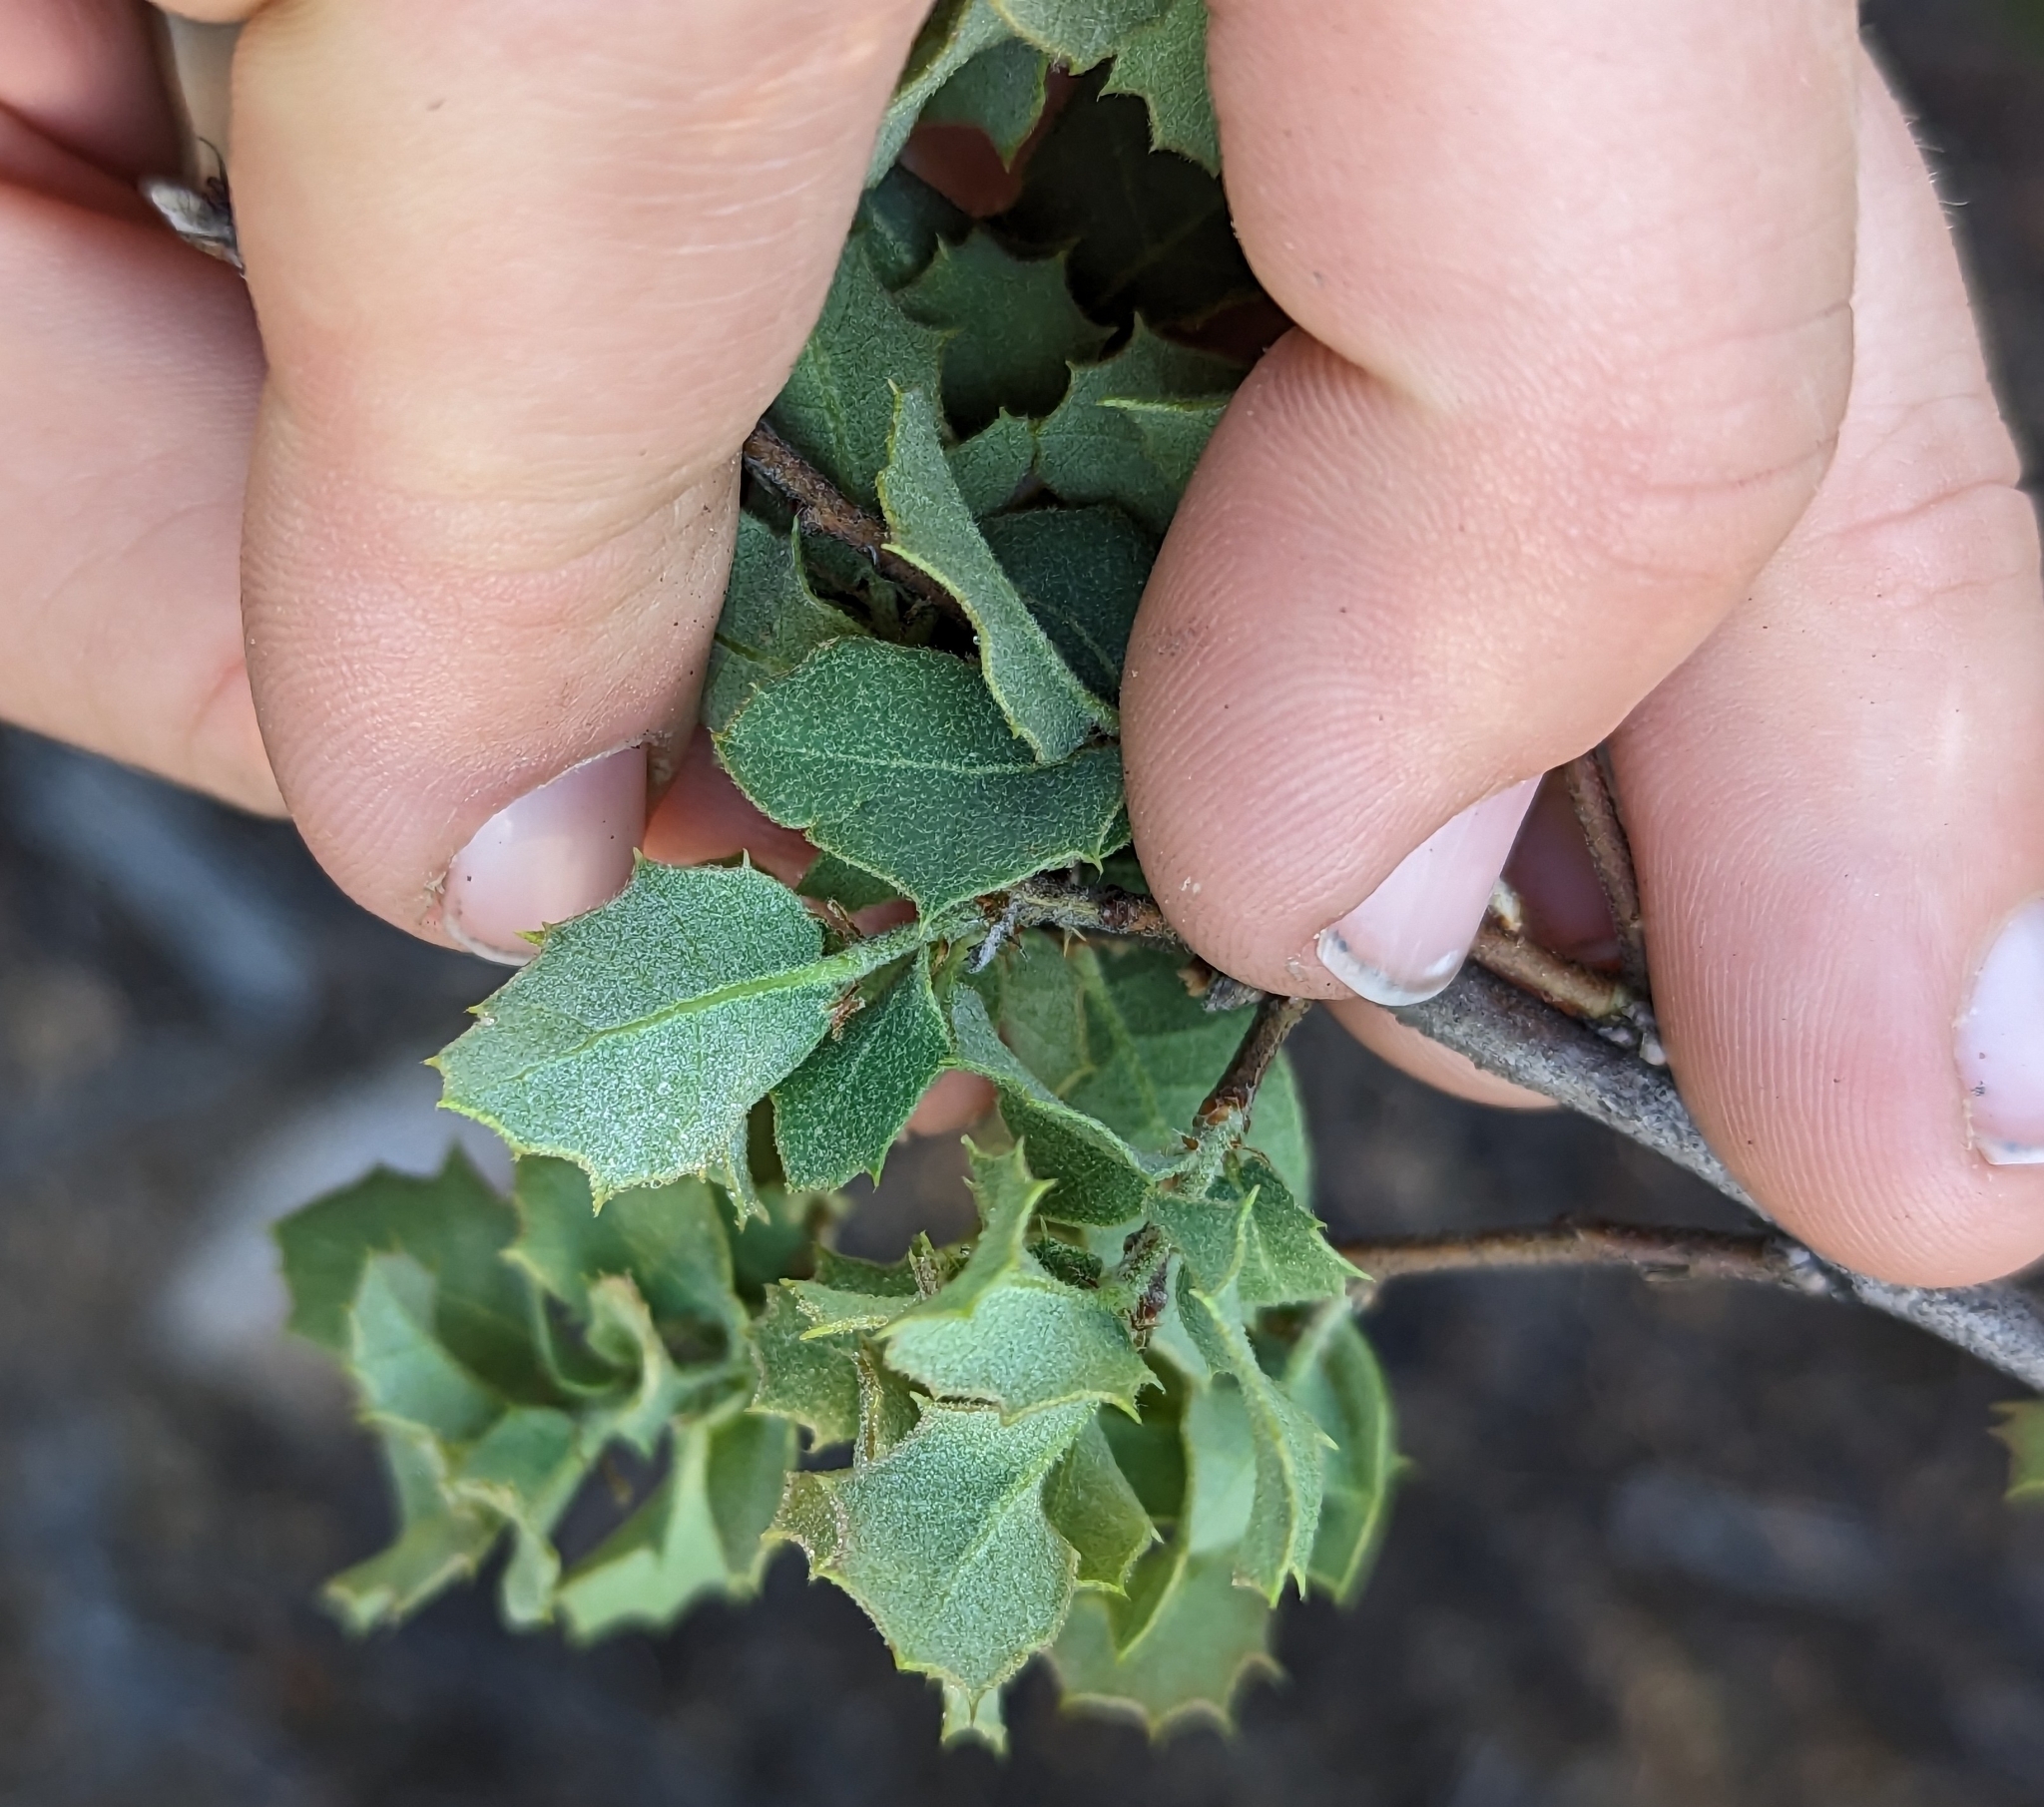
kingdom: Plantae
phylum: Tracheophyta
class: Magnoliopsida
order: Fagales
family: Fagaceae
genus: Quercus
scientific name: Quercus turbinella
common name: Sonoran scrub oak
